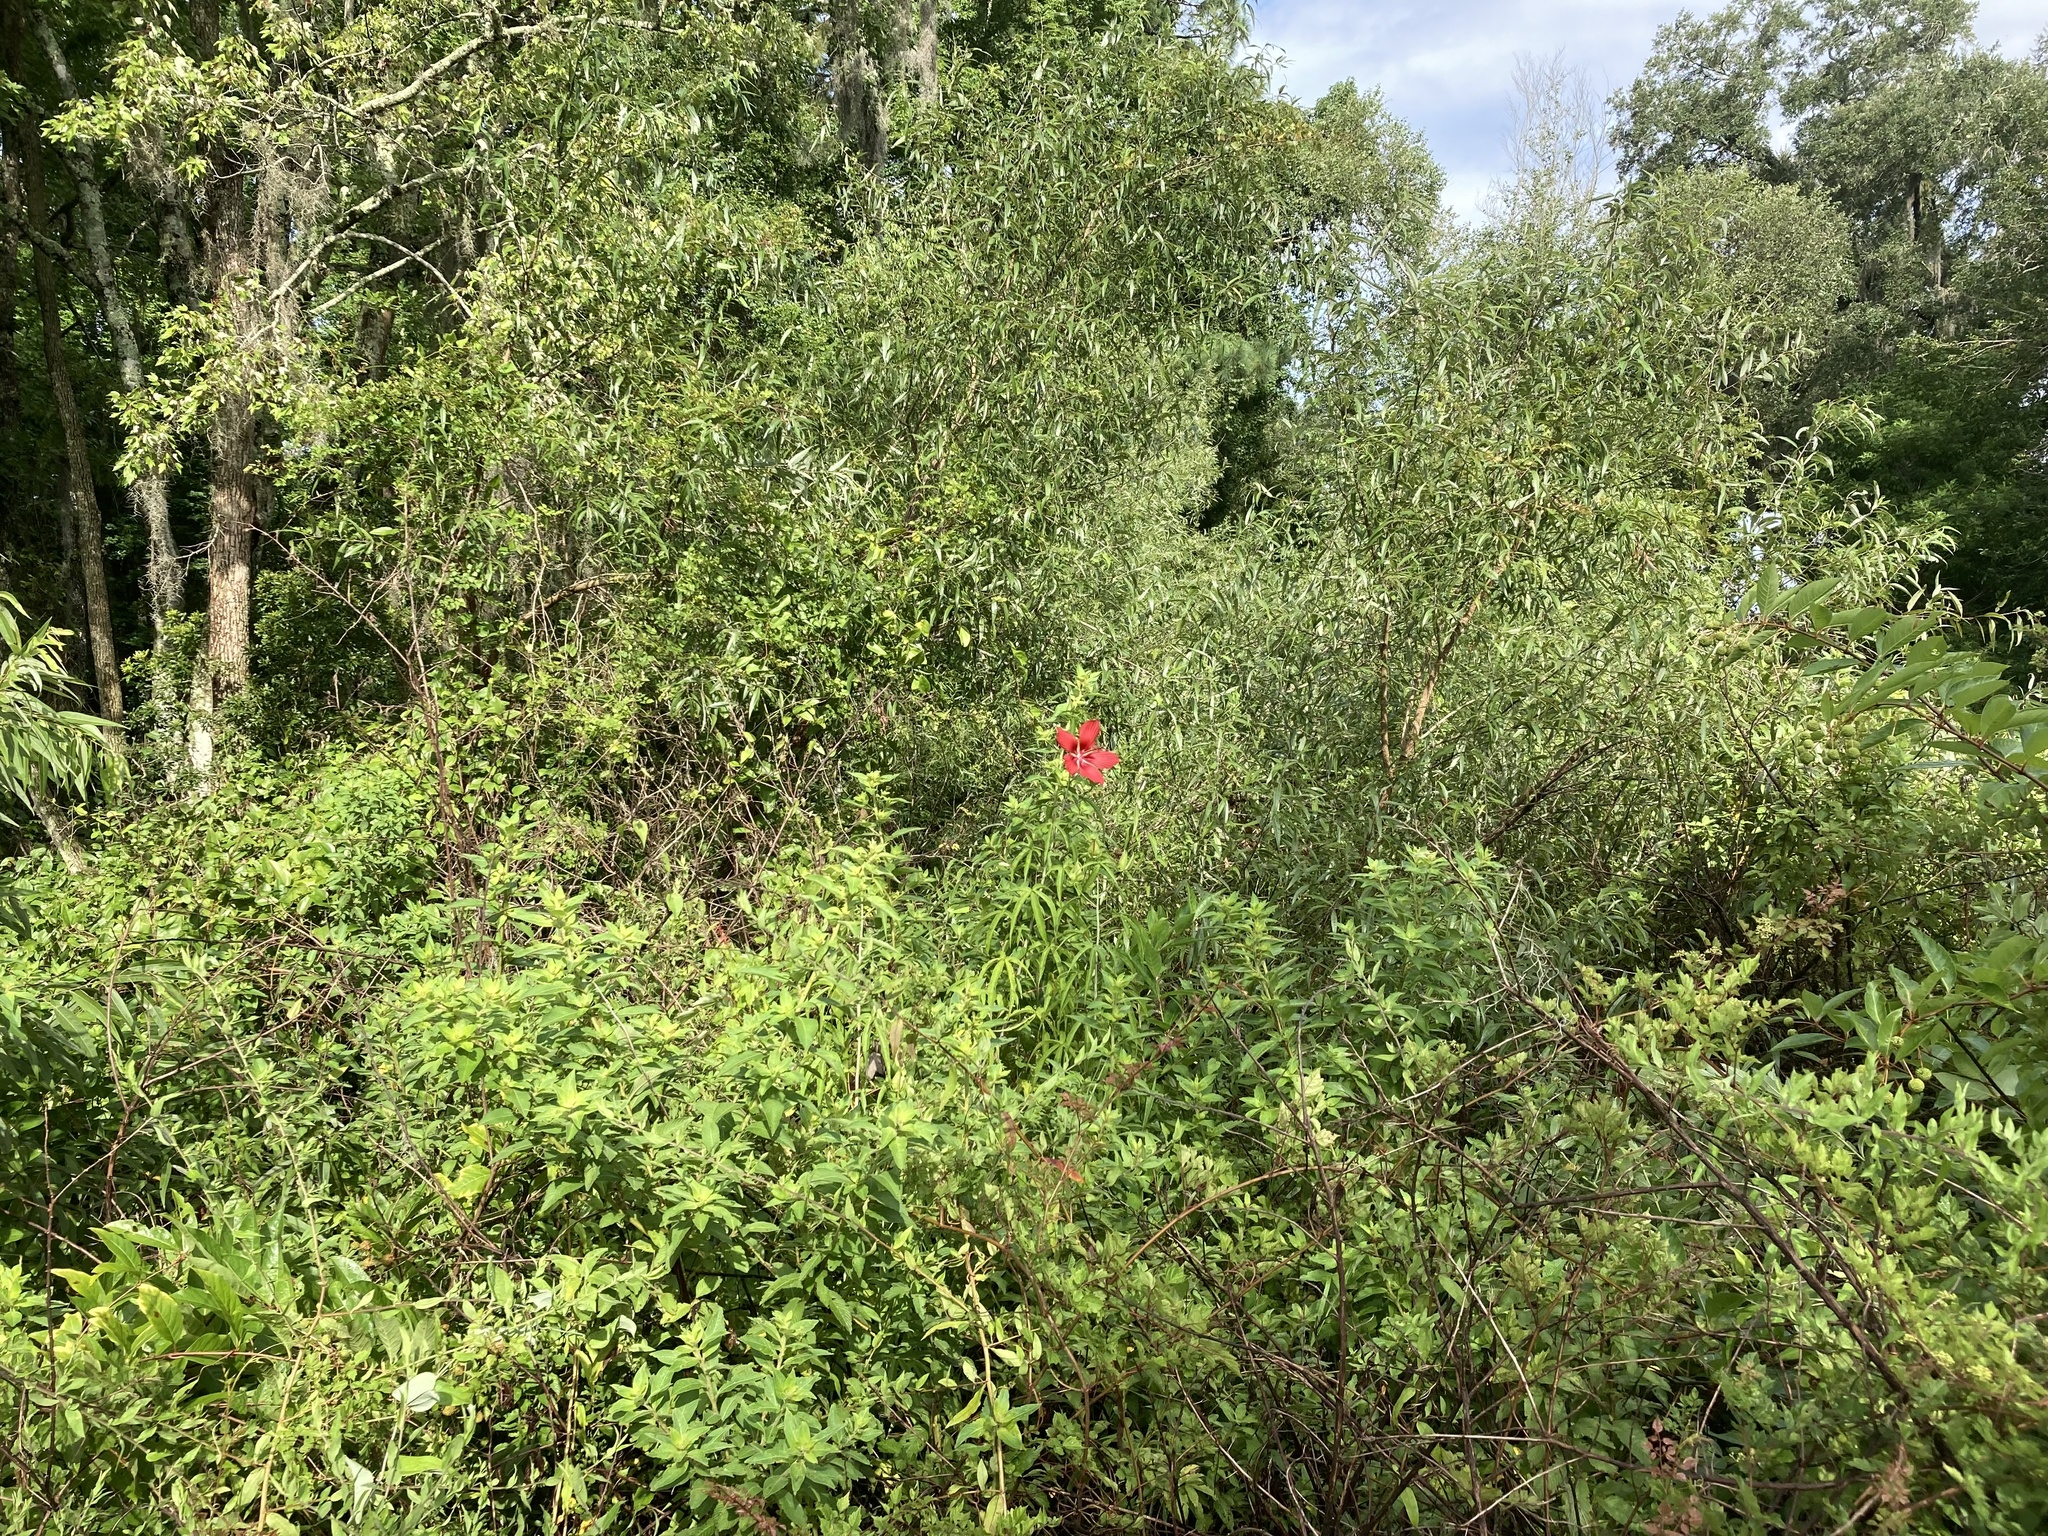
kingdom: Plantae
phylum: Tracheophyta
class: Magnoliopsida
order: Malvales
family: Malvaceae
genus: Hibiscus
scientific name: Hibiscus coccineus
